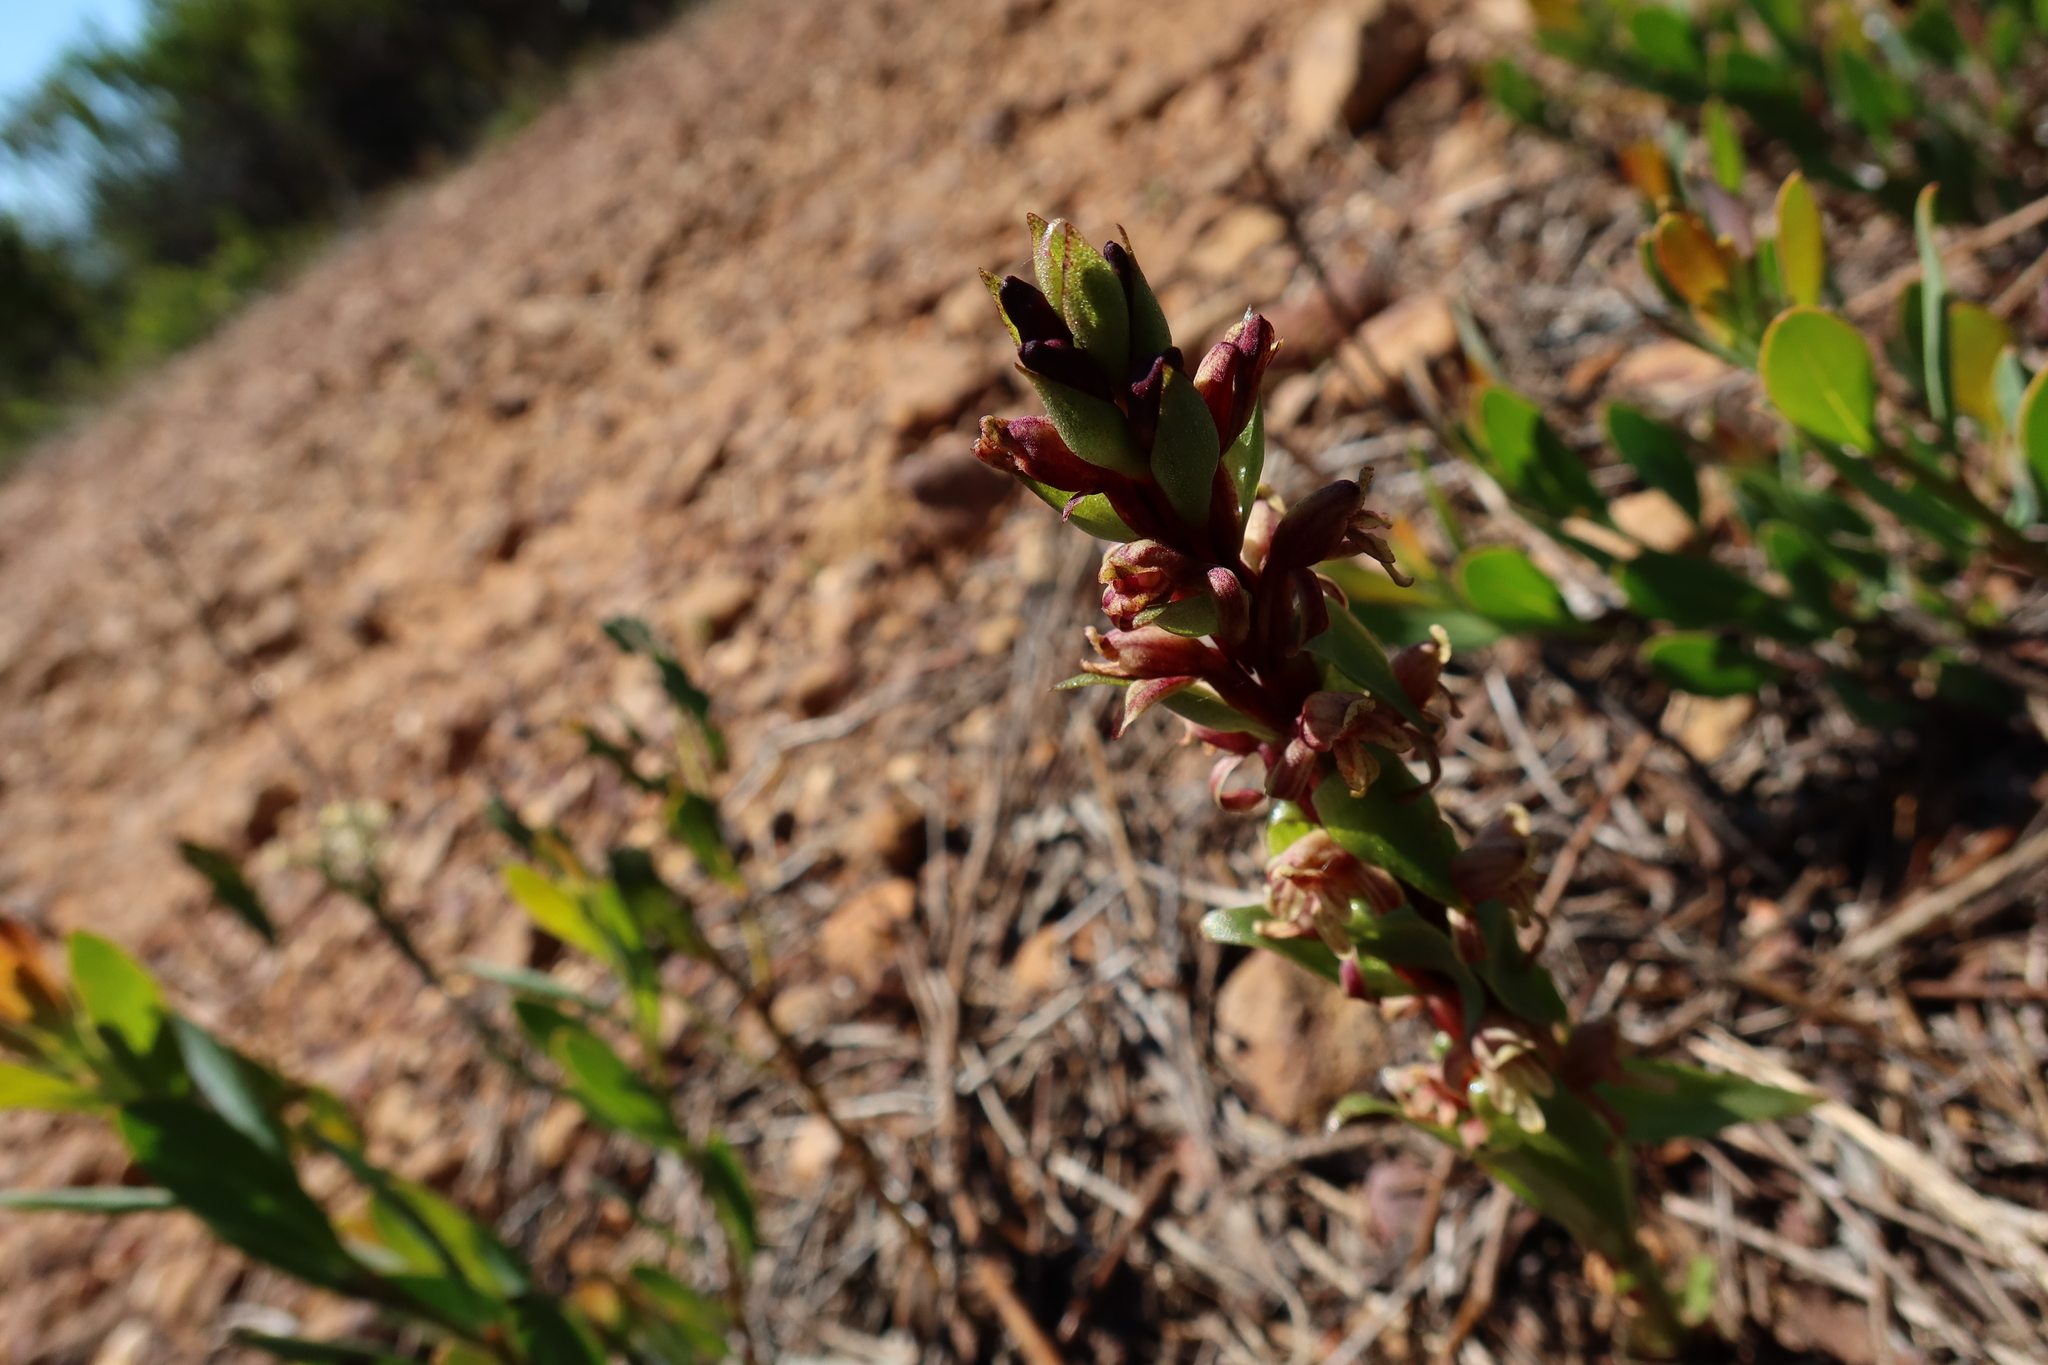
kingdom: Plantae
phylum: Tracheophyta
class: Liliopsida
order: Asparagales
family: Orchidaceae
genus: Satyrium
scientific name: Satyrium lupulinum
